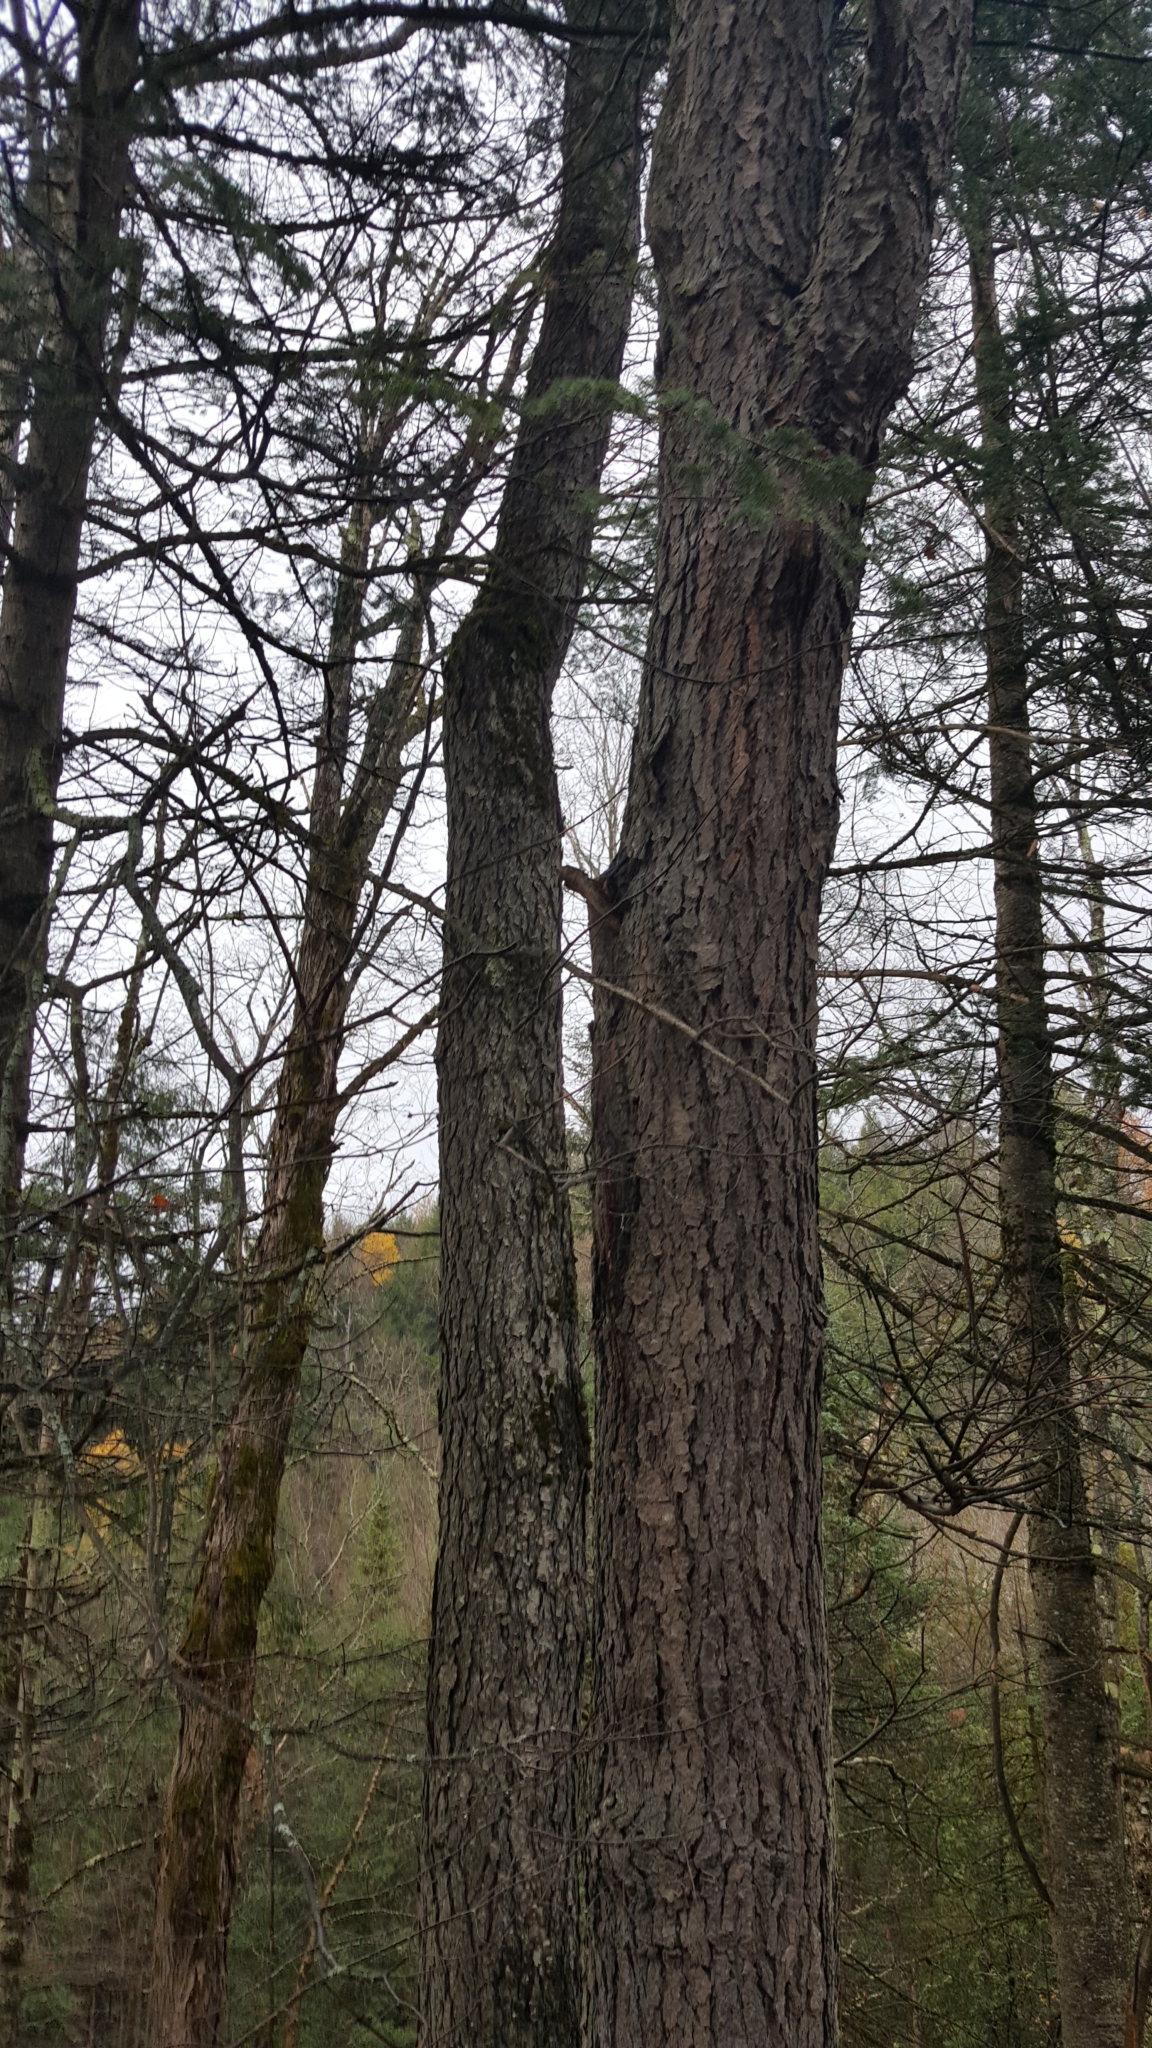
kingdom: Plantae
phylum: Tracheophyta
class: Magnoliopsida
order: Rosales
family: Rosaceae
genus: Prunus
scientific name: Prunus serotina
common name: Black cherry
